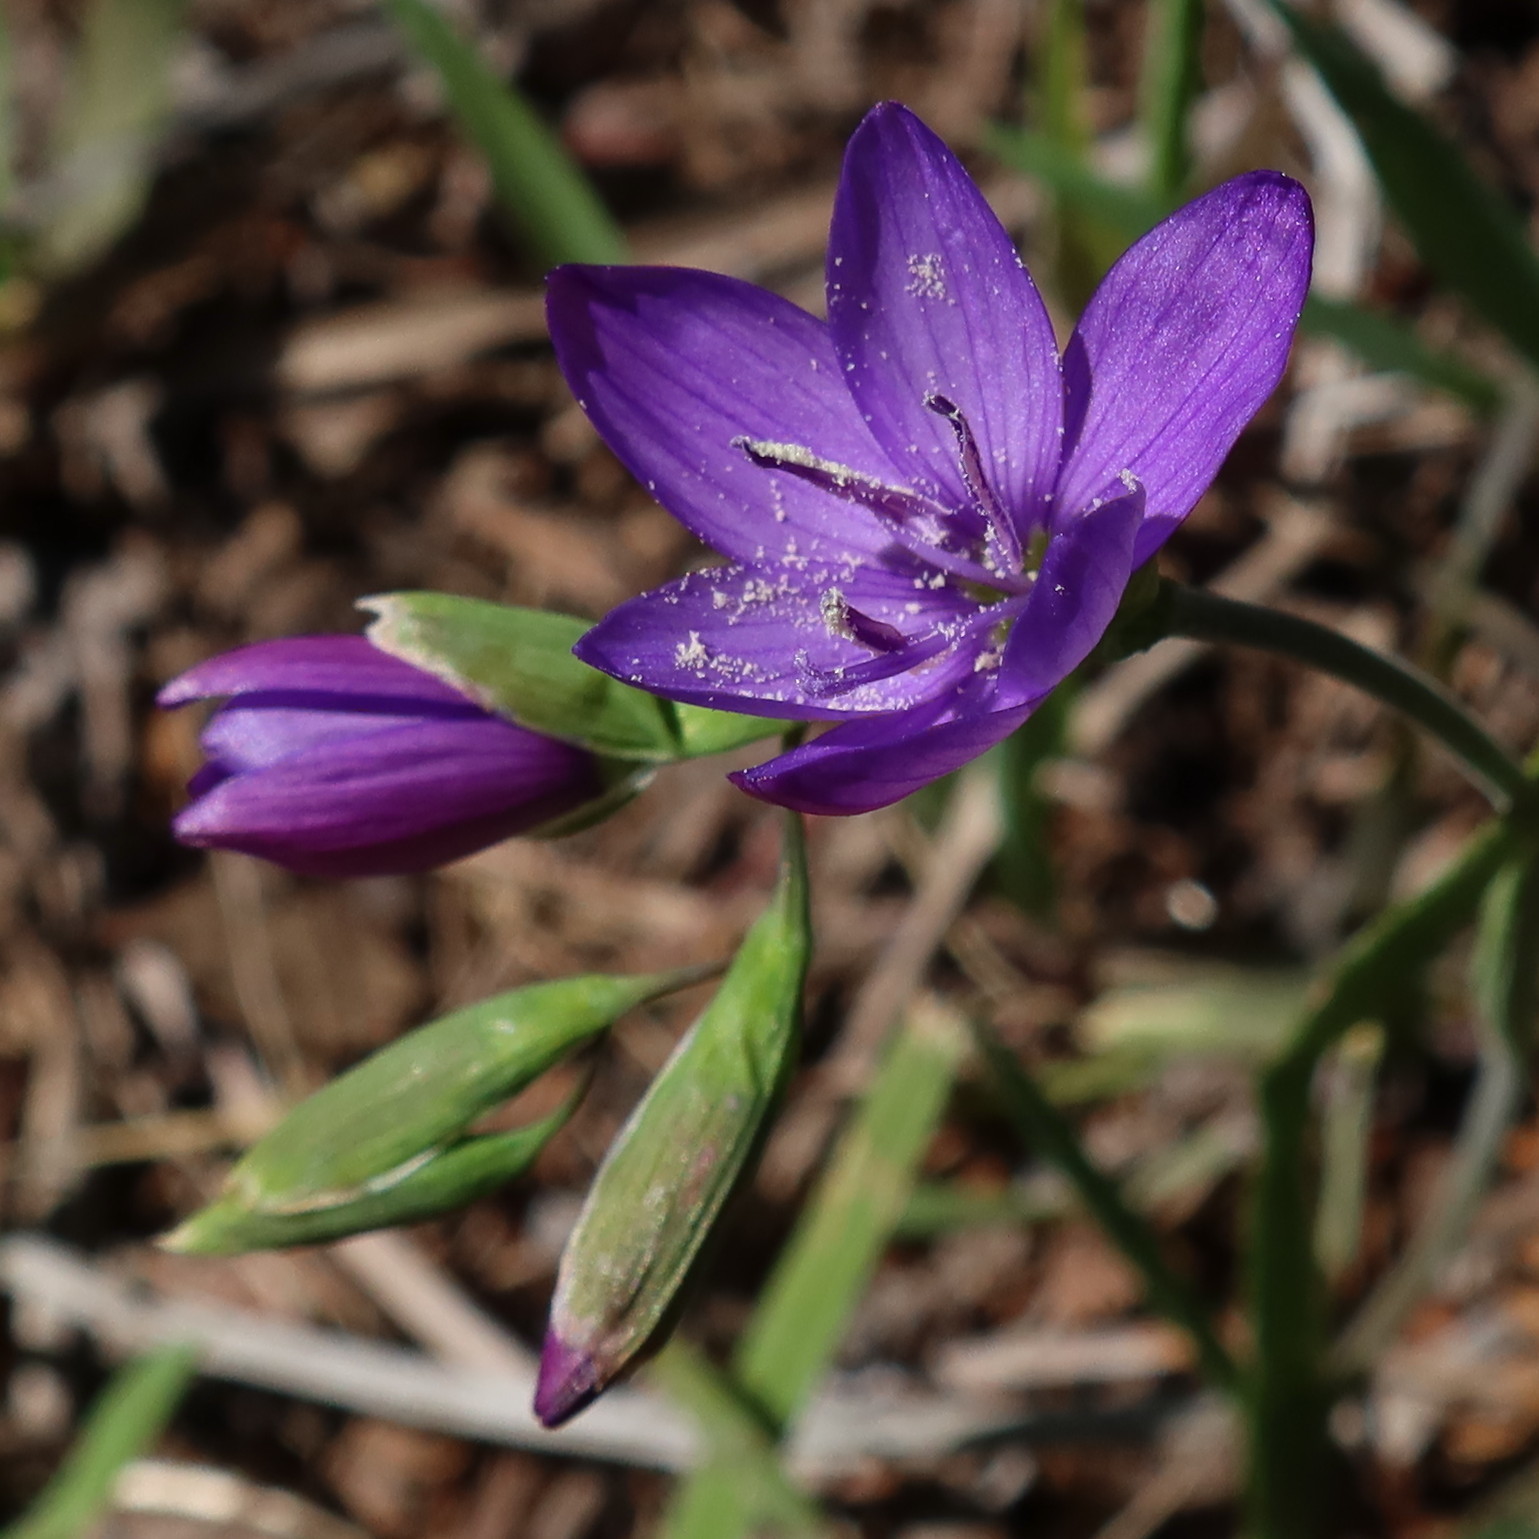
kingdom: Plantae
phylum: Tracheophyta
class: Liliopsida
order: Asparagales
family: Iridaceae
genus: Geissorhiza
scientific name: Geissorhiza aspera
